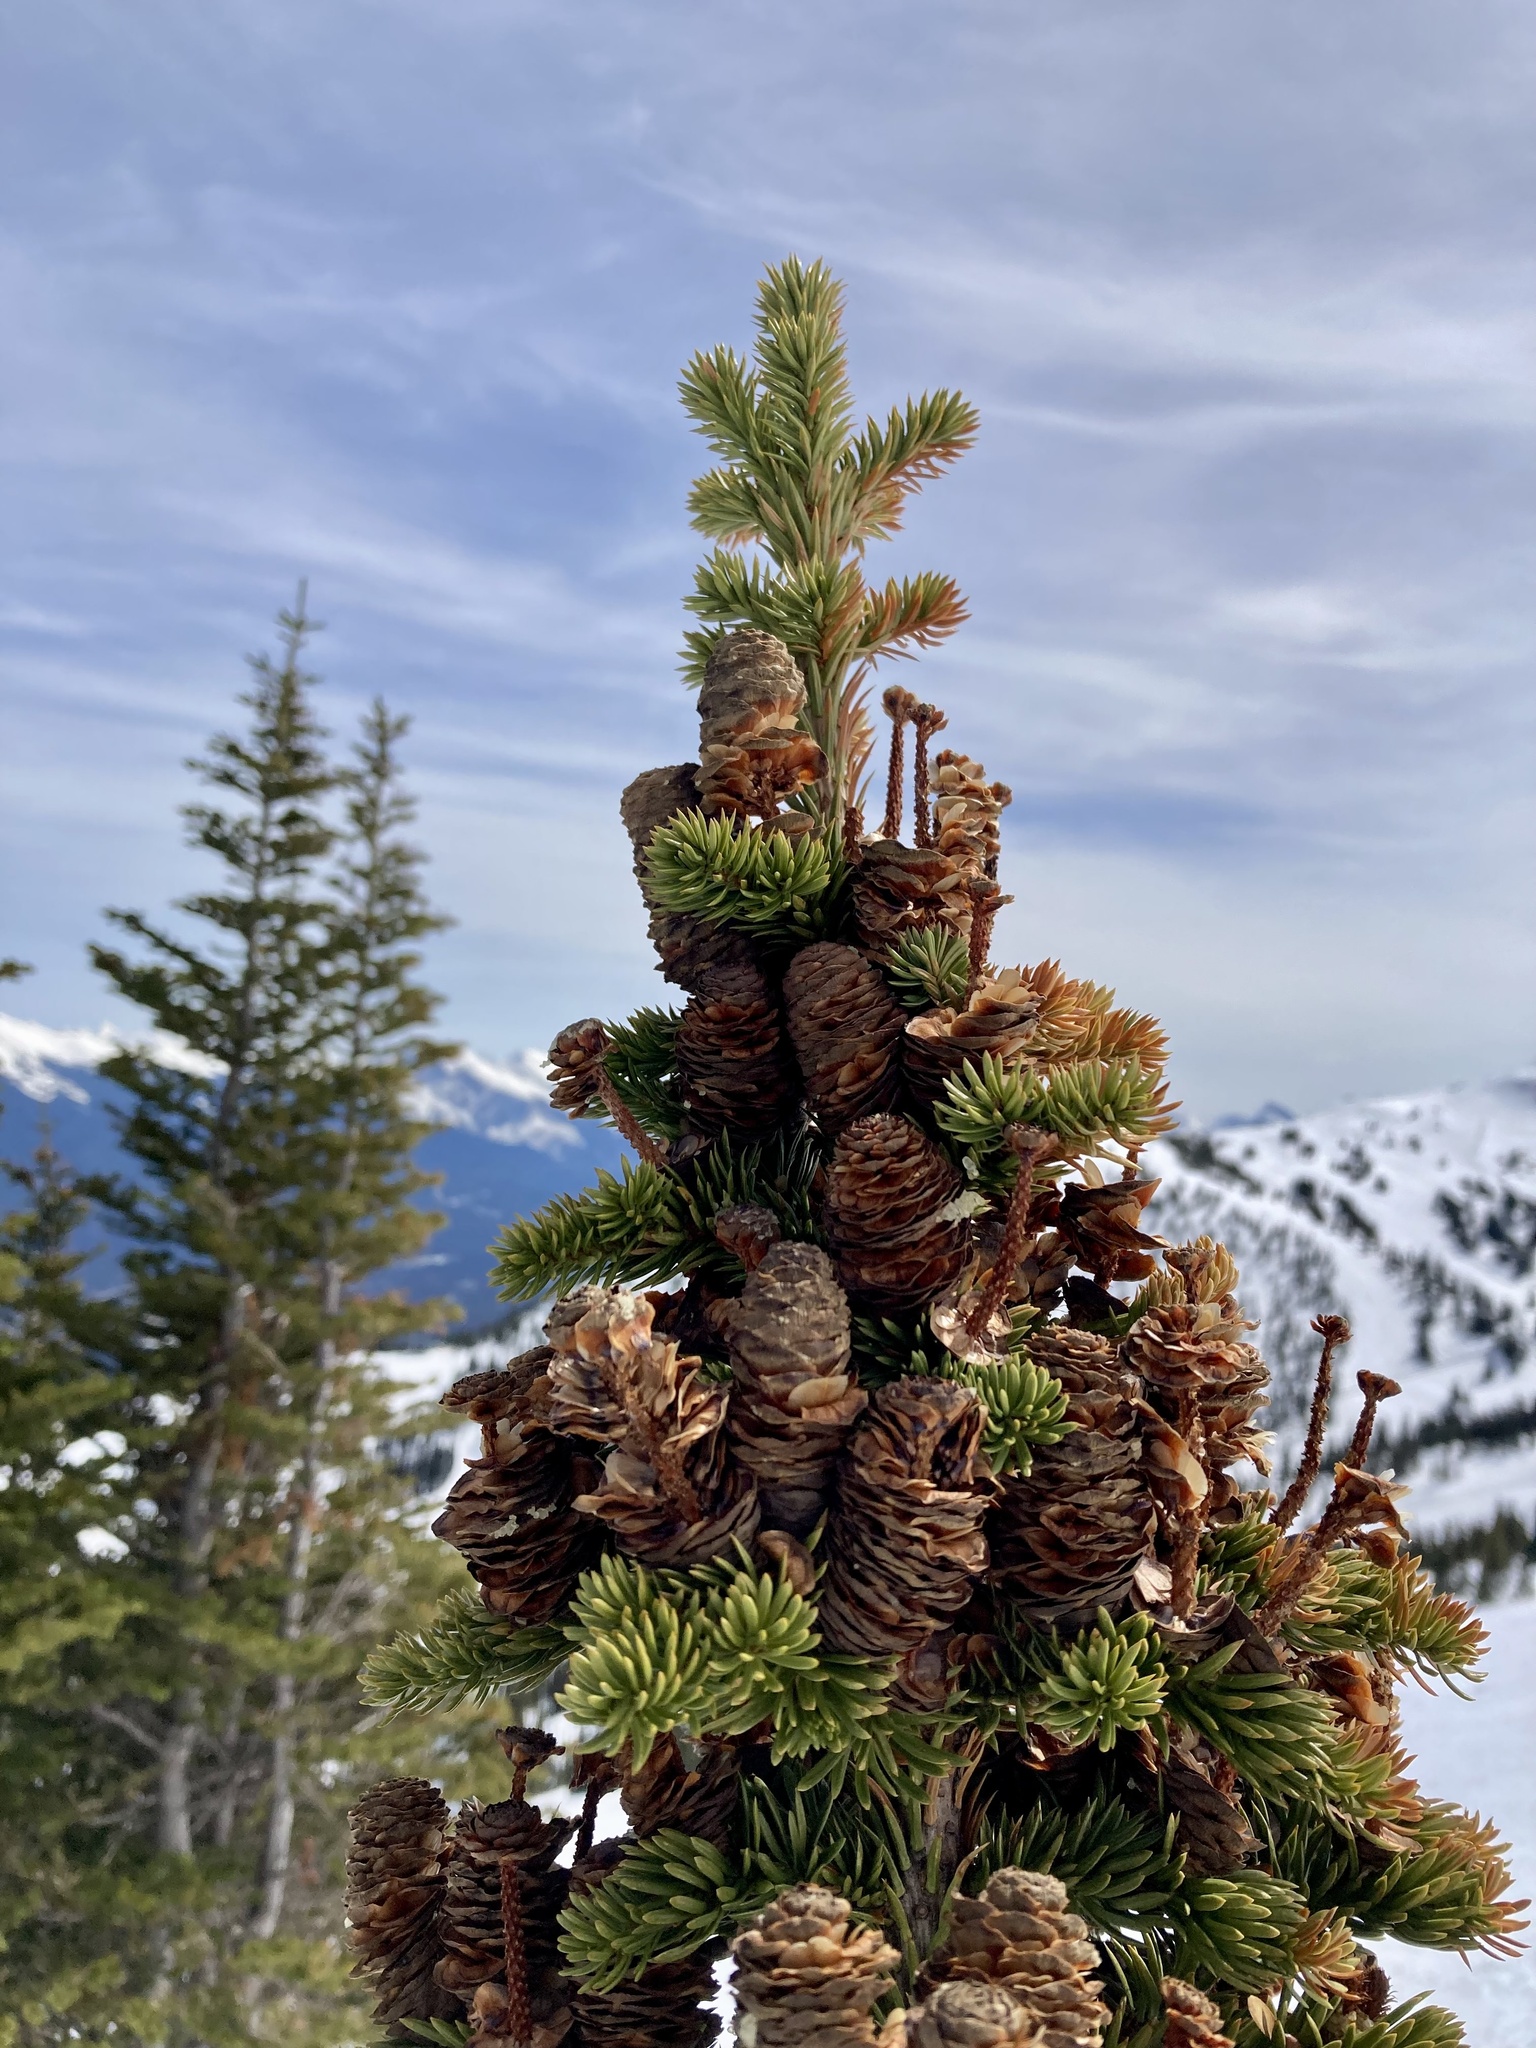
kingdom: Plantae
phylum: Tracheophyta
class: Pinopsida
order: Pinales
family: Pinaceae
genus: Abies
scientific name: Abies lasiocarpa
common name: Subalpine fir
